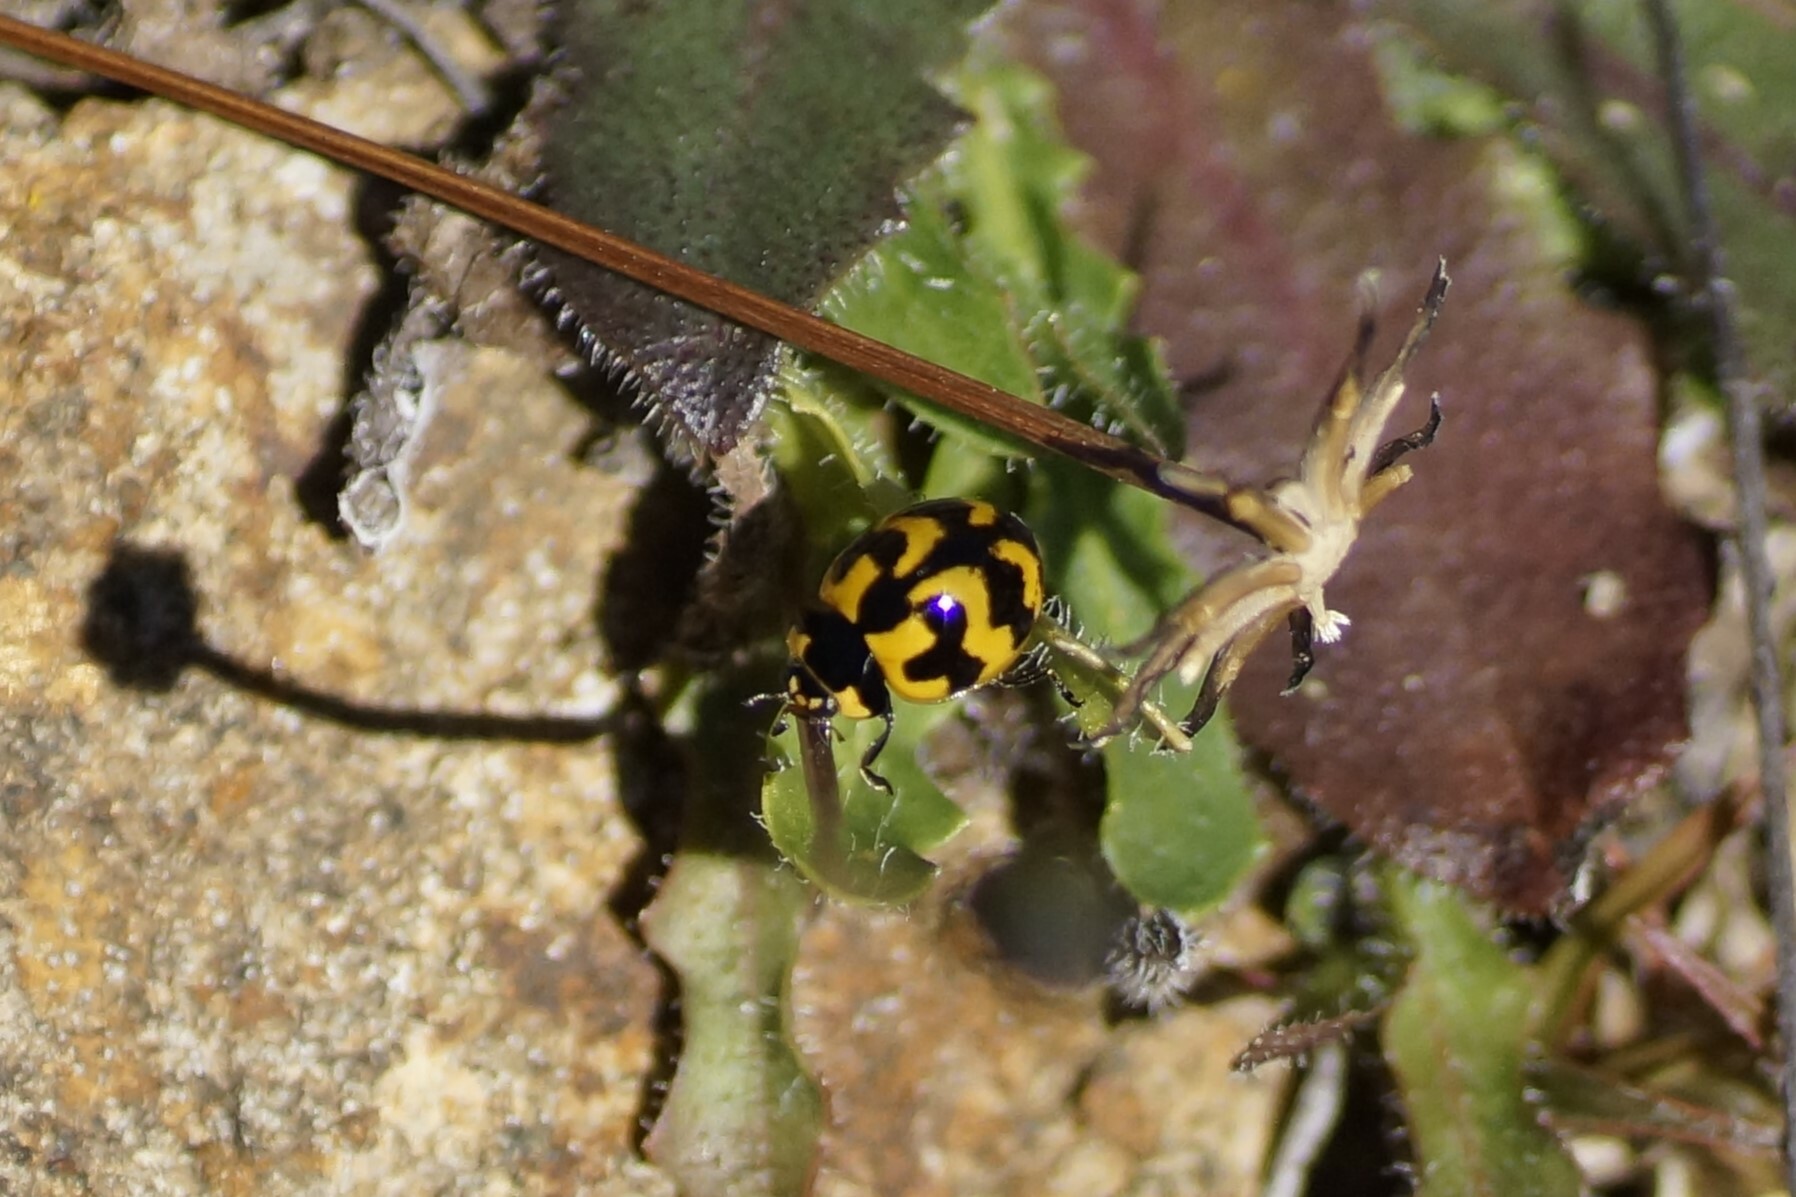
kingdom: Animalia
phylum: Arthropoda
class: Insecta
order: Coleoptera
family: Coccinellidae
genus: Coccinella
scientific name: Coccinella transversalis
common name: Transverse lady beetle
